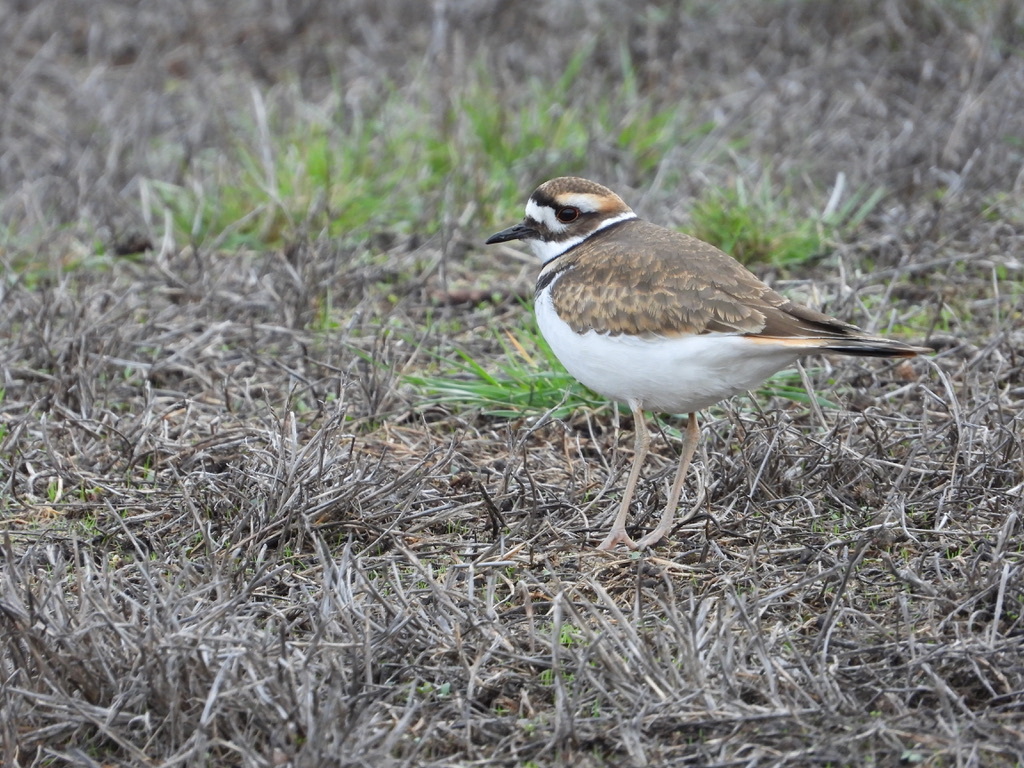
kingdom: Animalia
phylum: Chordata
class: Aves
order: Charadriiformes
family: Charadriidae
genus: Charadrius
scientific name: Charadrius vociferus
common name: Killdeer
